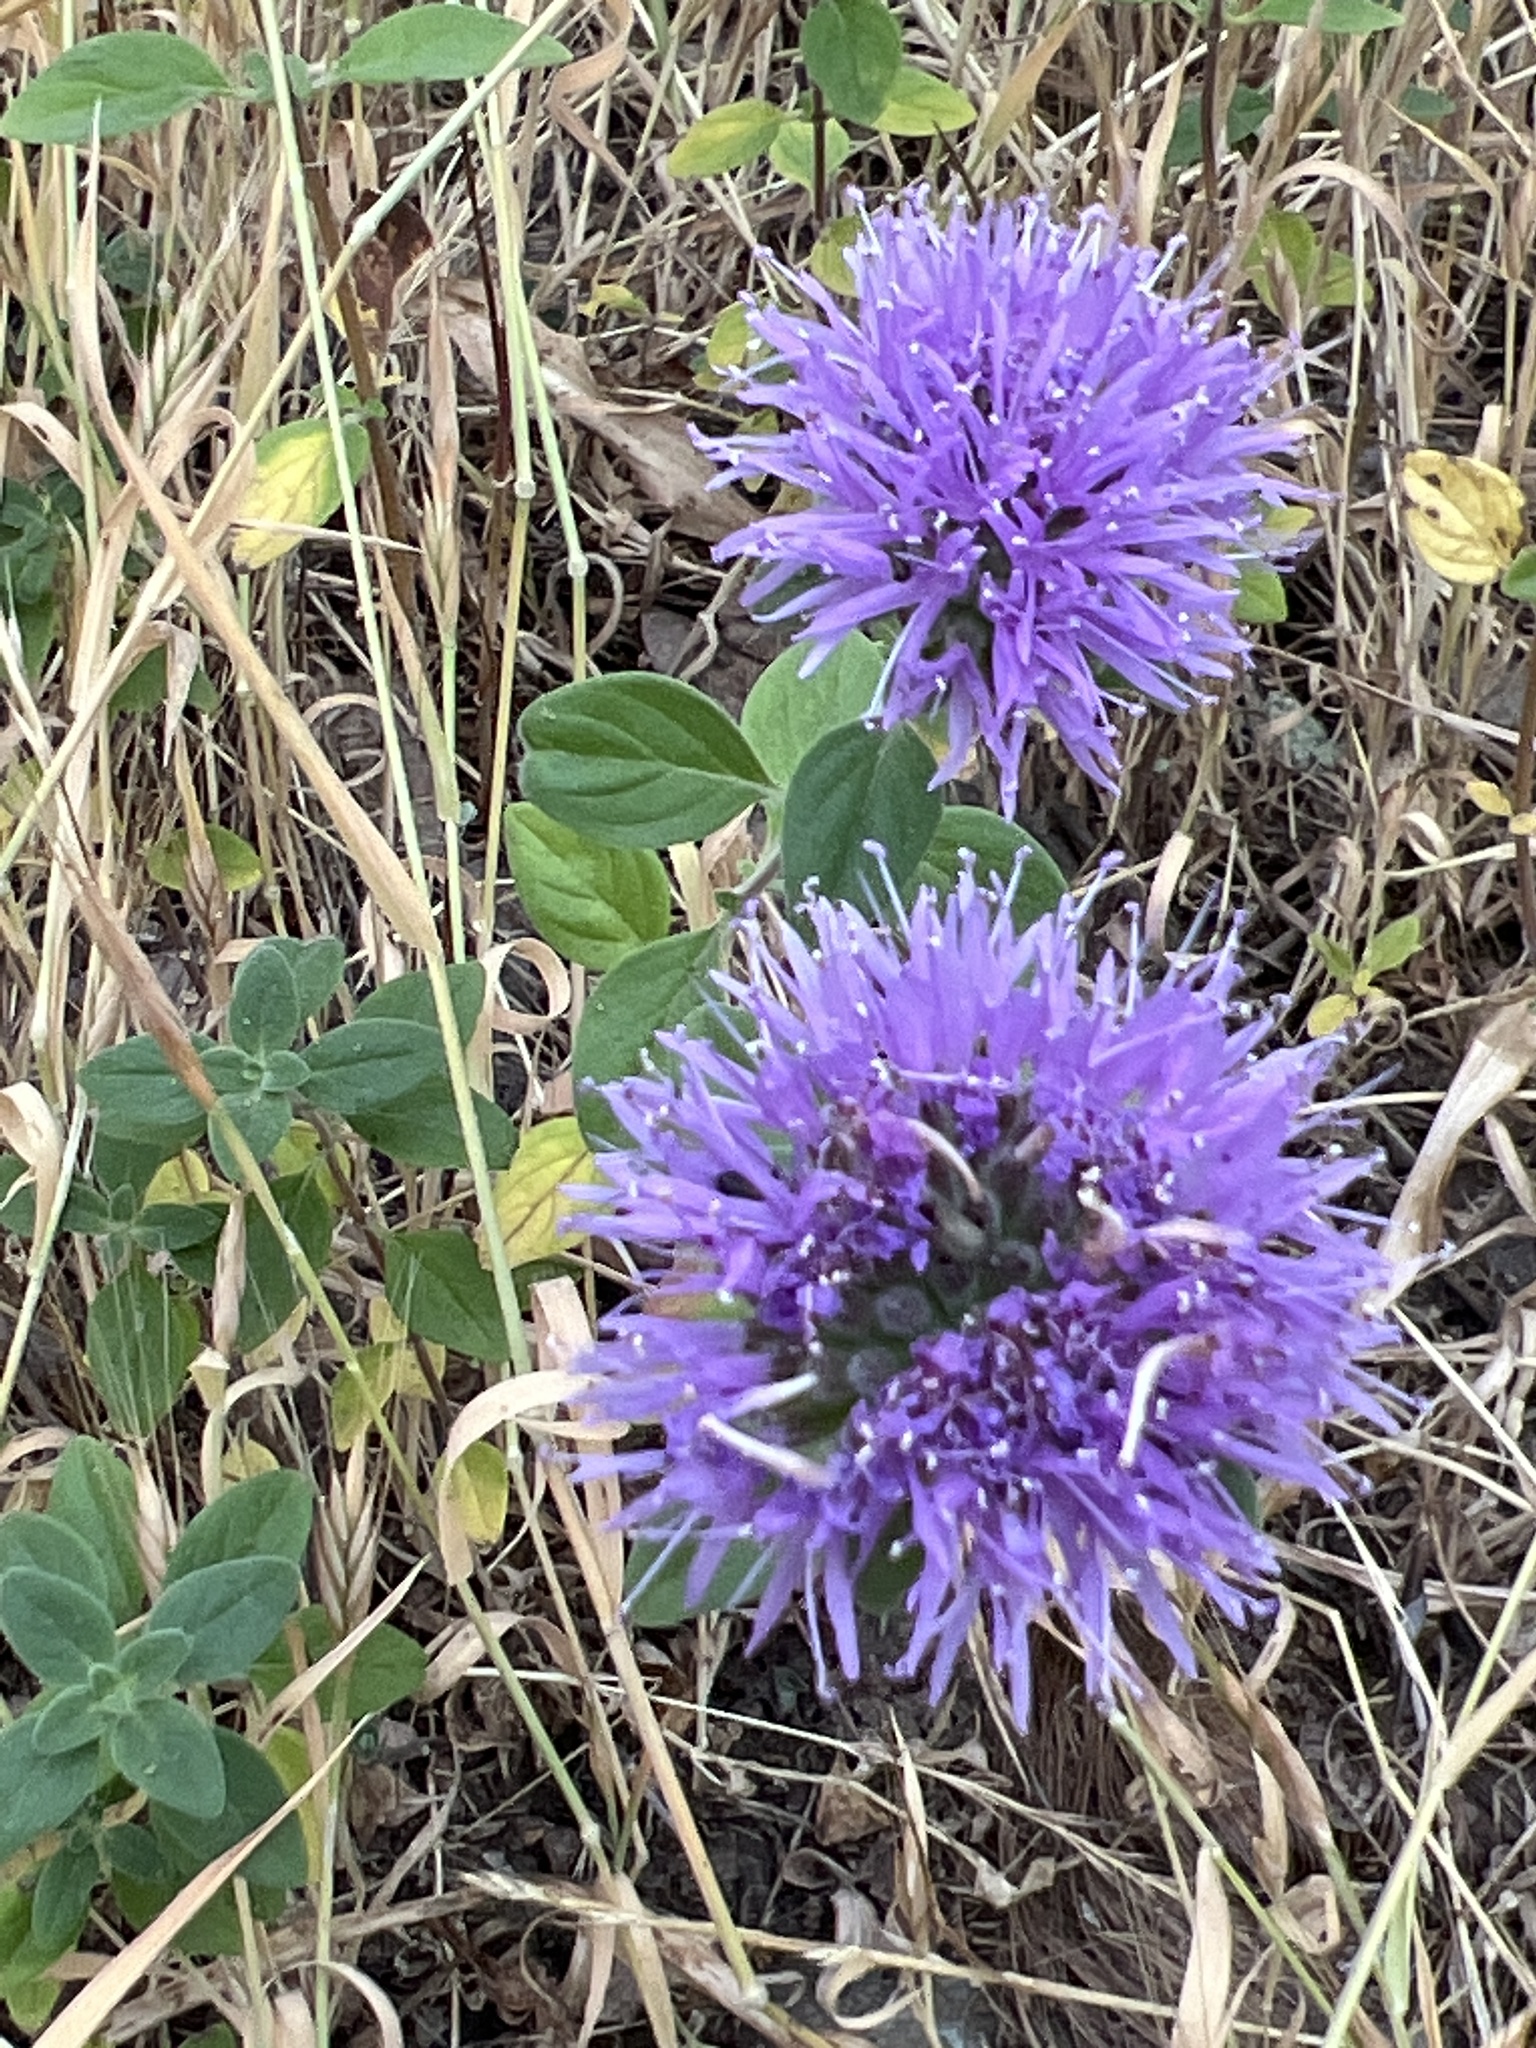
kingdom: Plantae
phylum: Tracheophyta
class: Magnoliopsida
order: Lamiales
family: Lamiaceae
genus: Monardella
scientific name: Monardella odoratissima
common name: Pacific monardella
